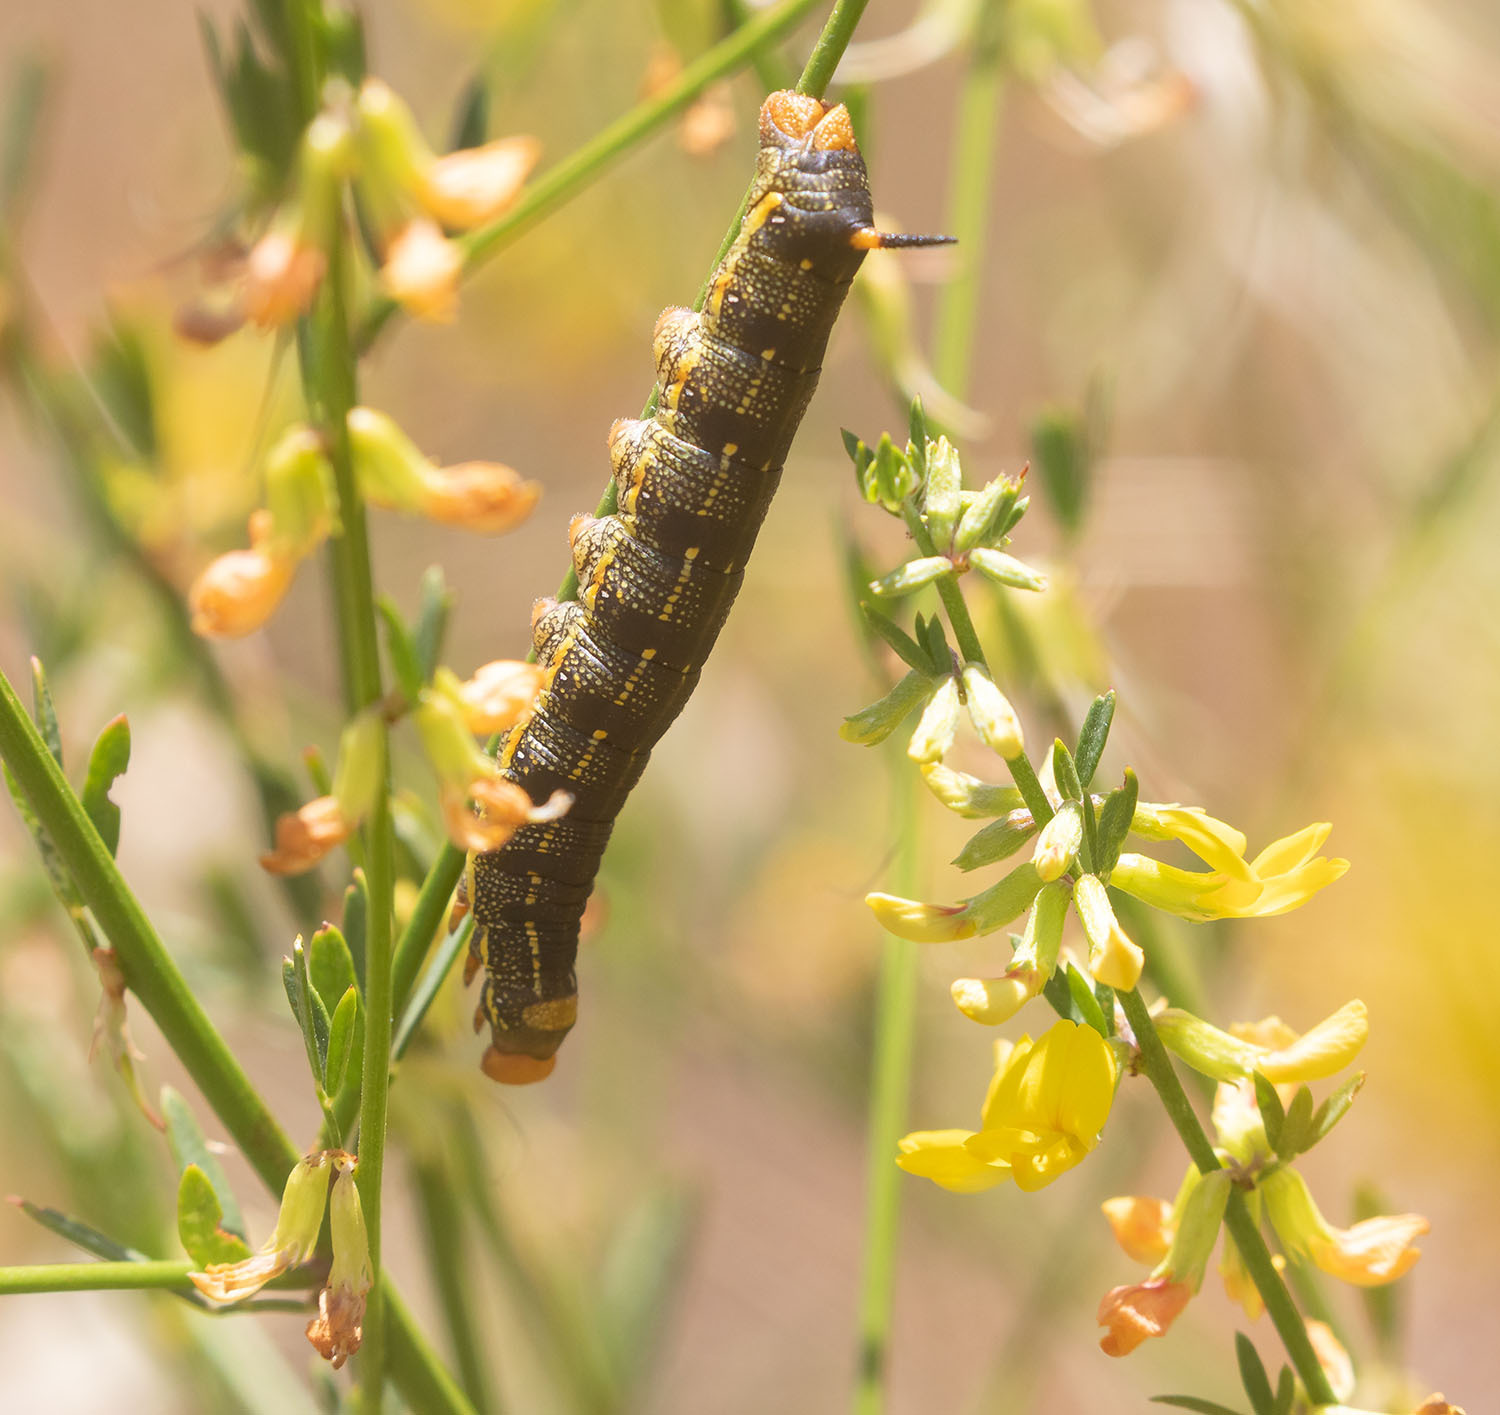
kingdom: Animalia
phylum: Arthropoda
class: Insecta
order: Lepidoptera
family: Sphingidae
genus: Hyles
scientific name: Hyles lineata
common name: White-lined sphinx
